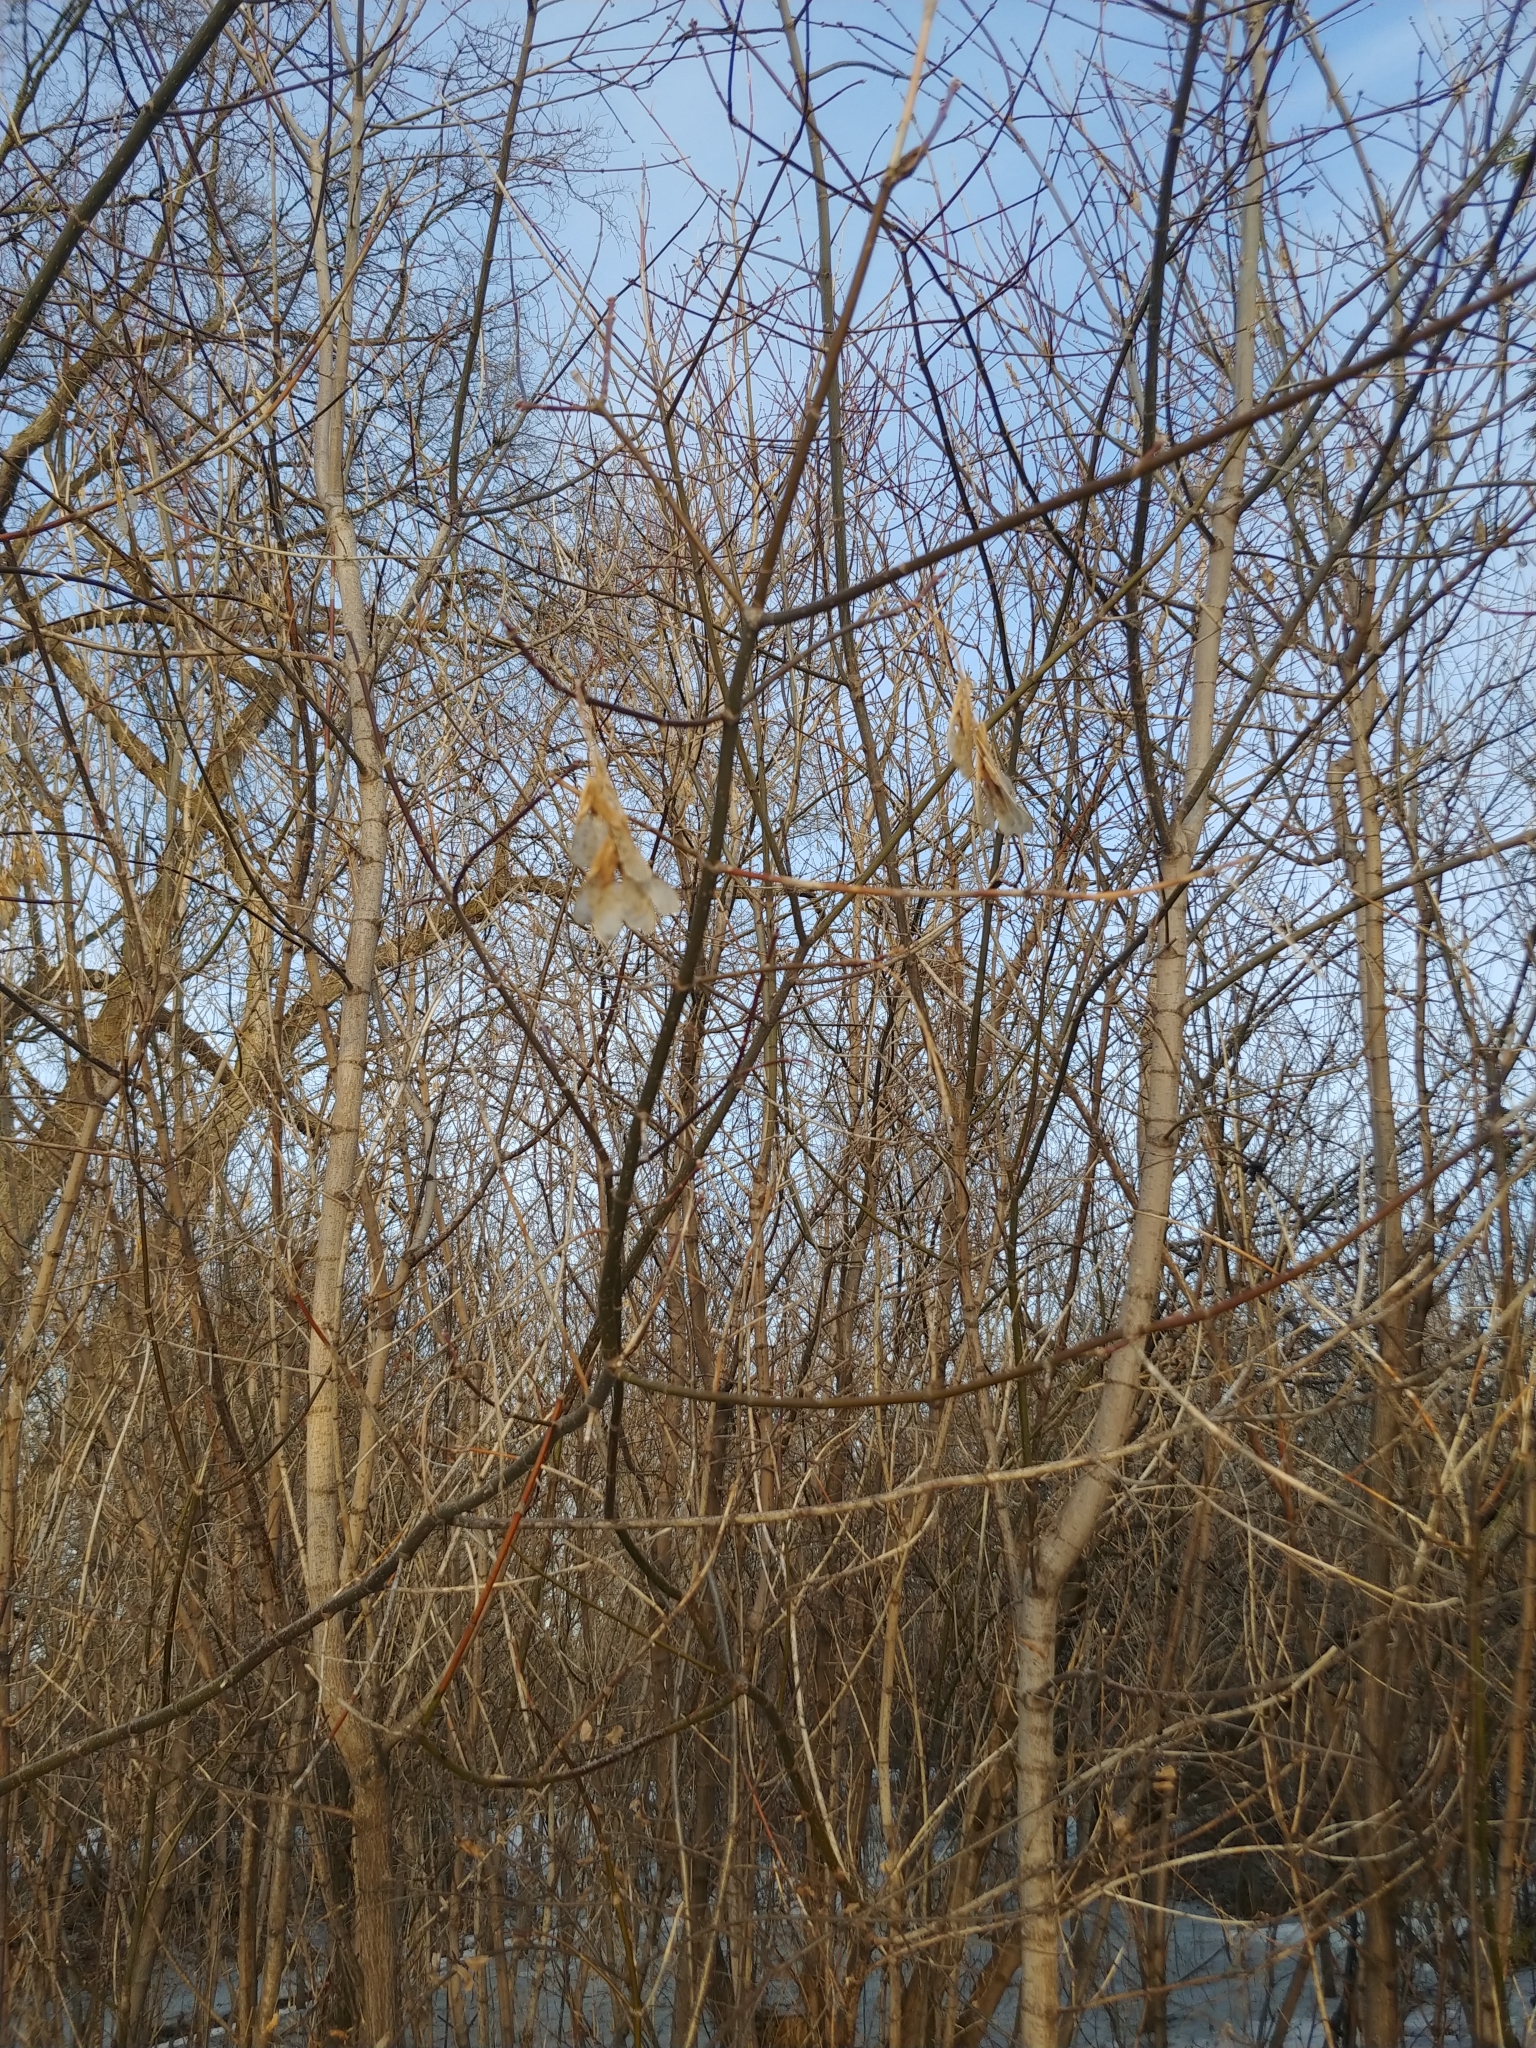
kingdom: Plantae
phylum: Tracheophyta
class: Magnoliopsida
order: Sapindales
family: Sapindaceae
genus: Acer
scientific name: Acer negundo
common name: Ashleaf maple
